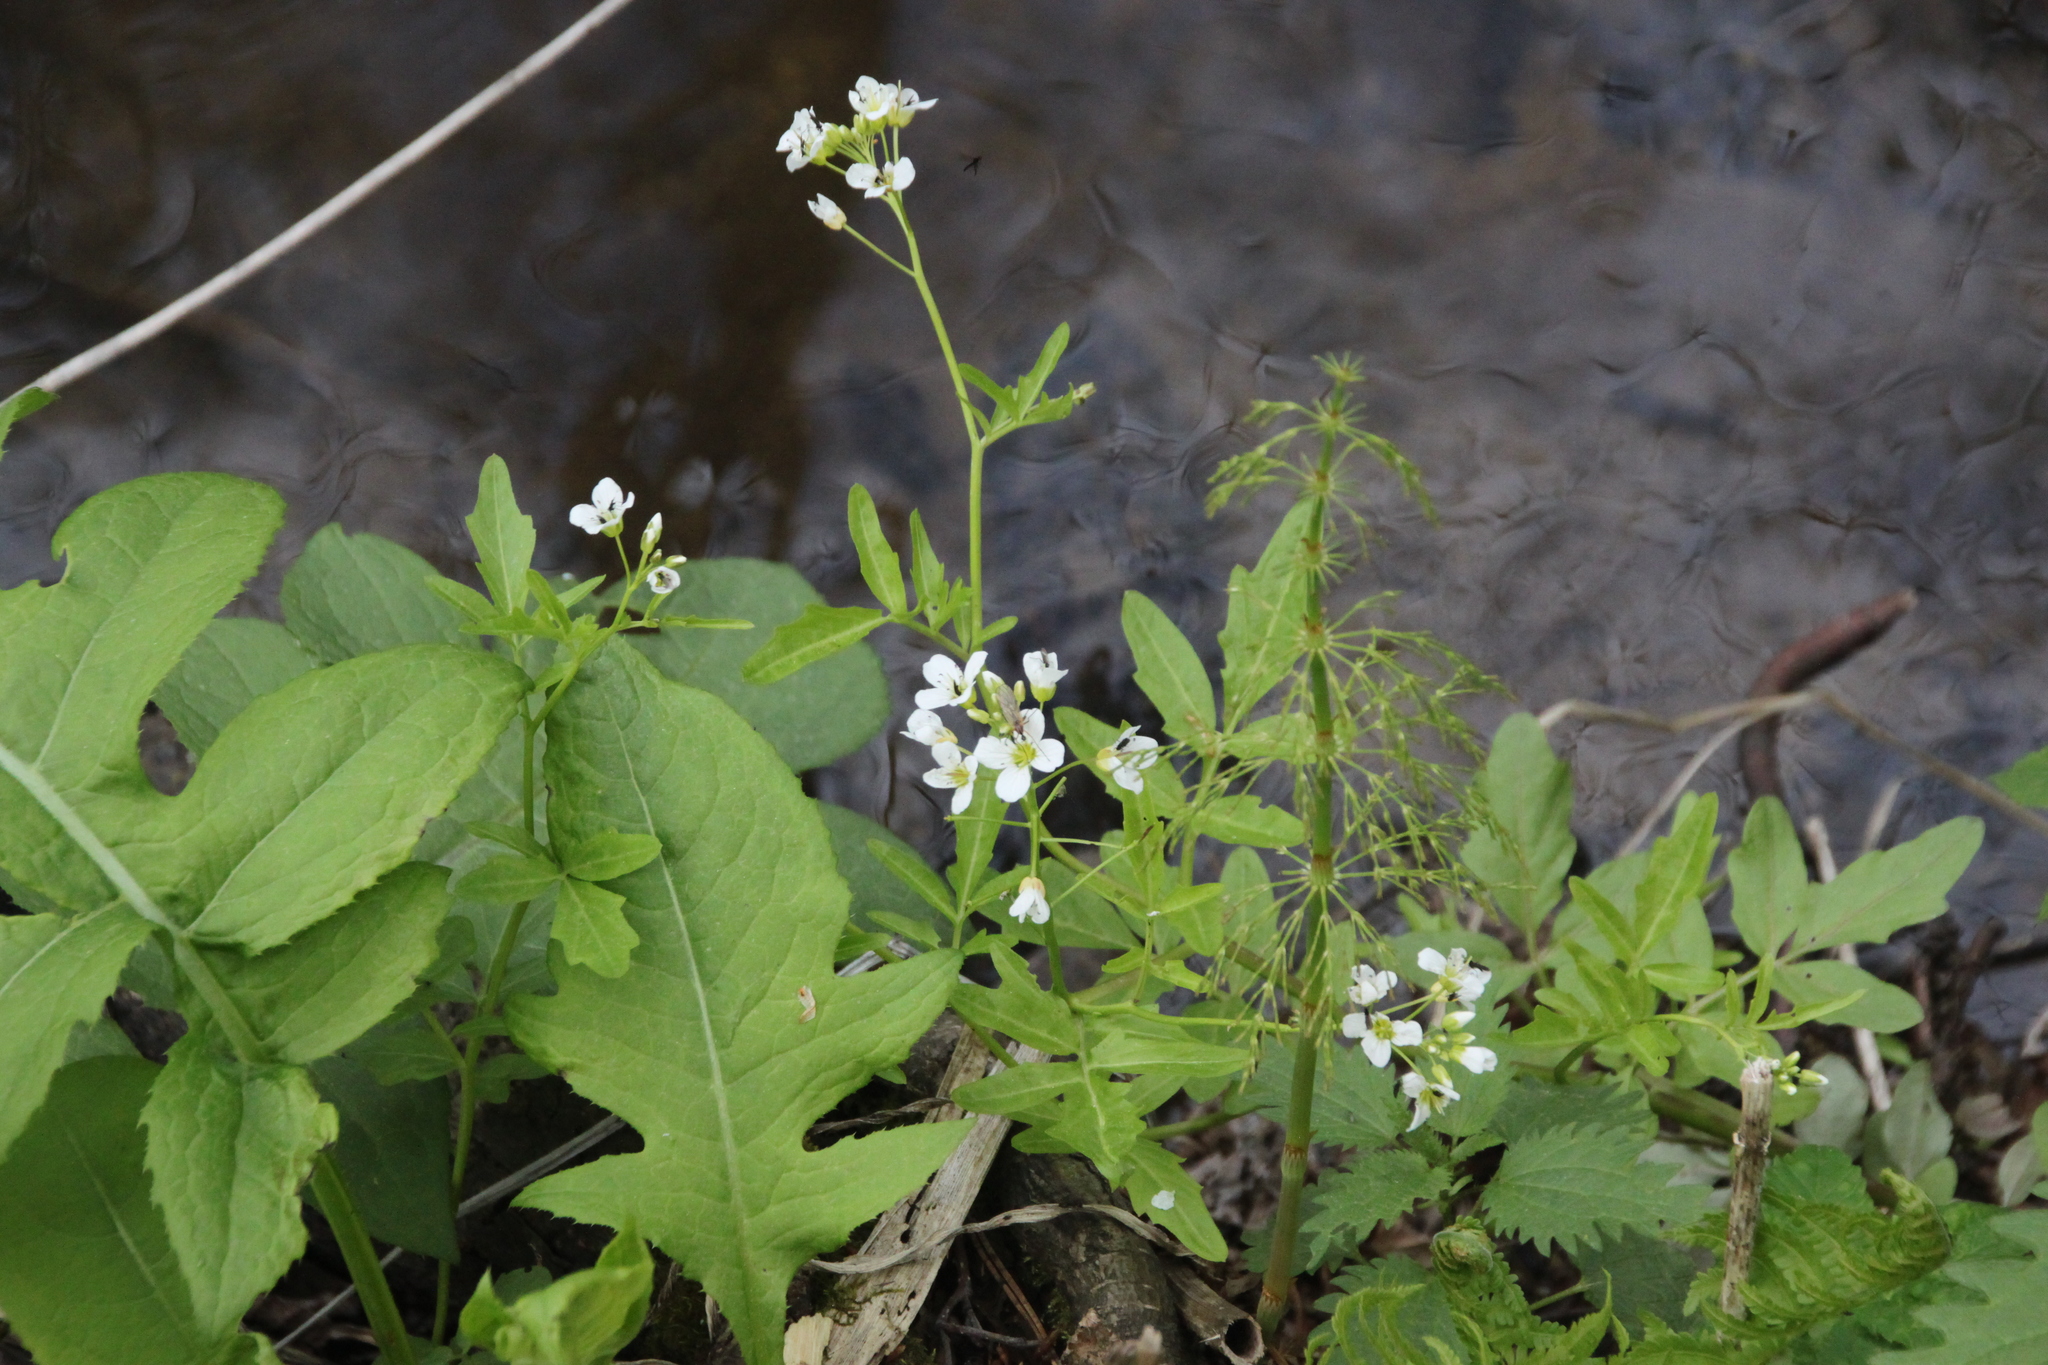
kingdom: Plantae
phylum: Tracheophyta
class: Magnoliopsida
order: Brassicales
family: Brassicaceae
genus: Cardamine
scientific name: Cardamine amara
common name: Large bitter-cress
